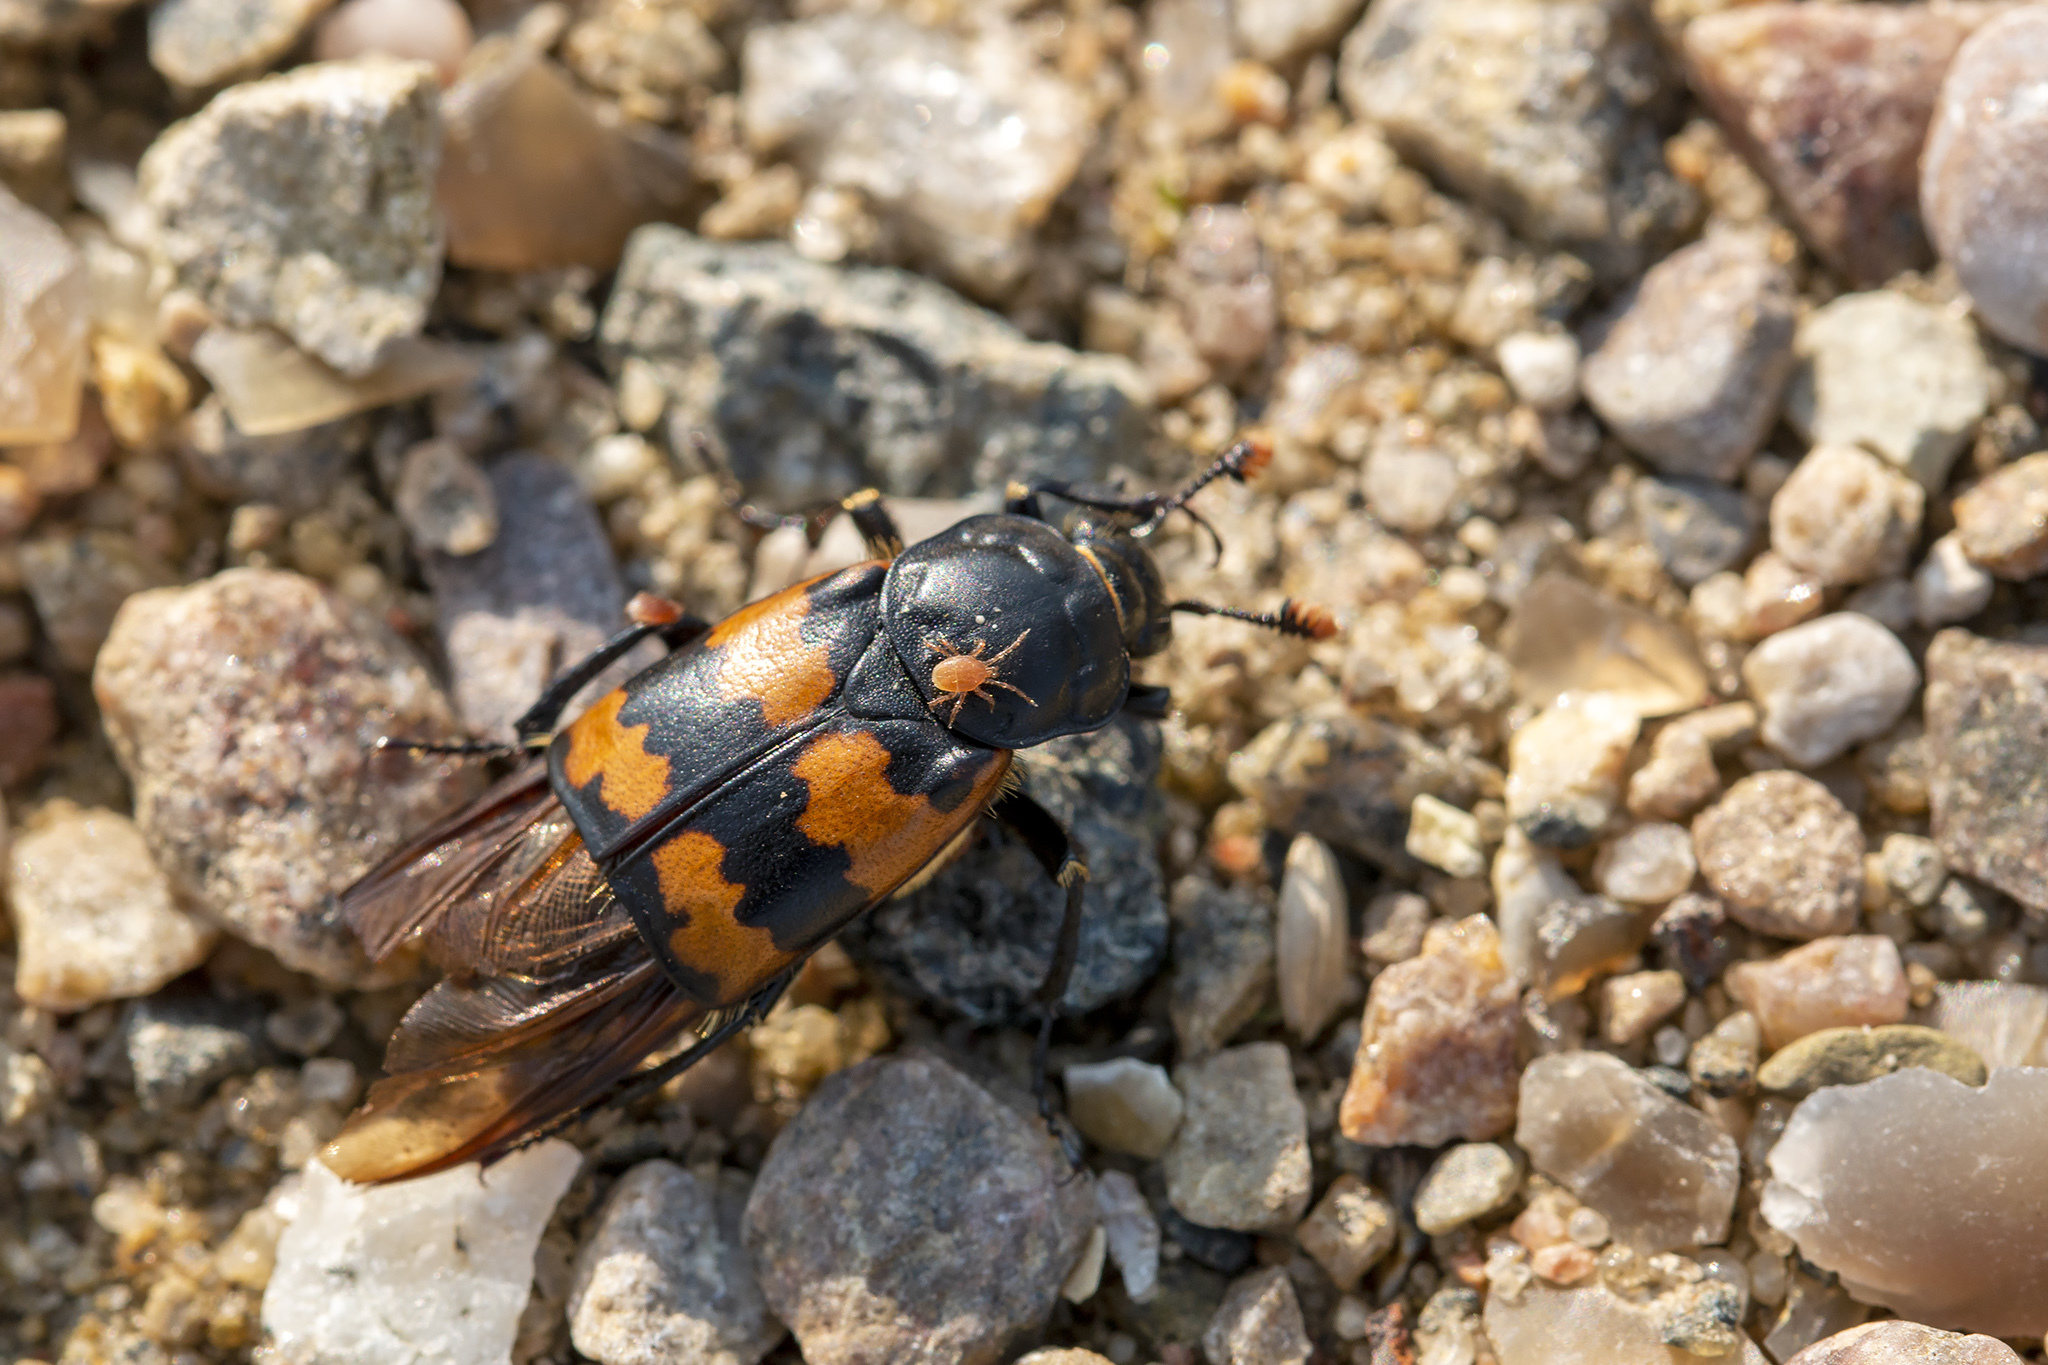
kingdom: Animalia
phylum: Arthropoda
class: Insecta
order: Coleoptera
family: Staphylinidae
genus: Nicrophorus
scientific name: Nicrophorus vespillo
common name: Common burying beetle
